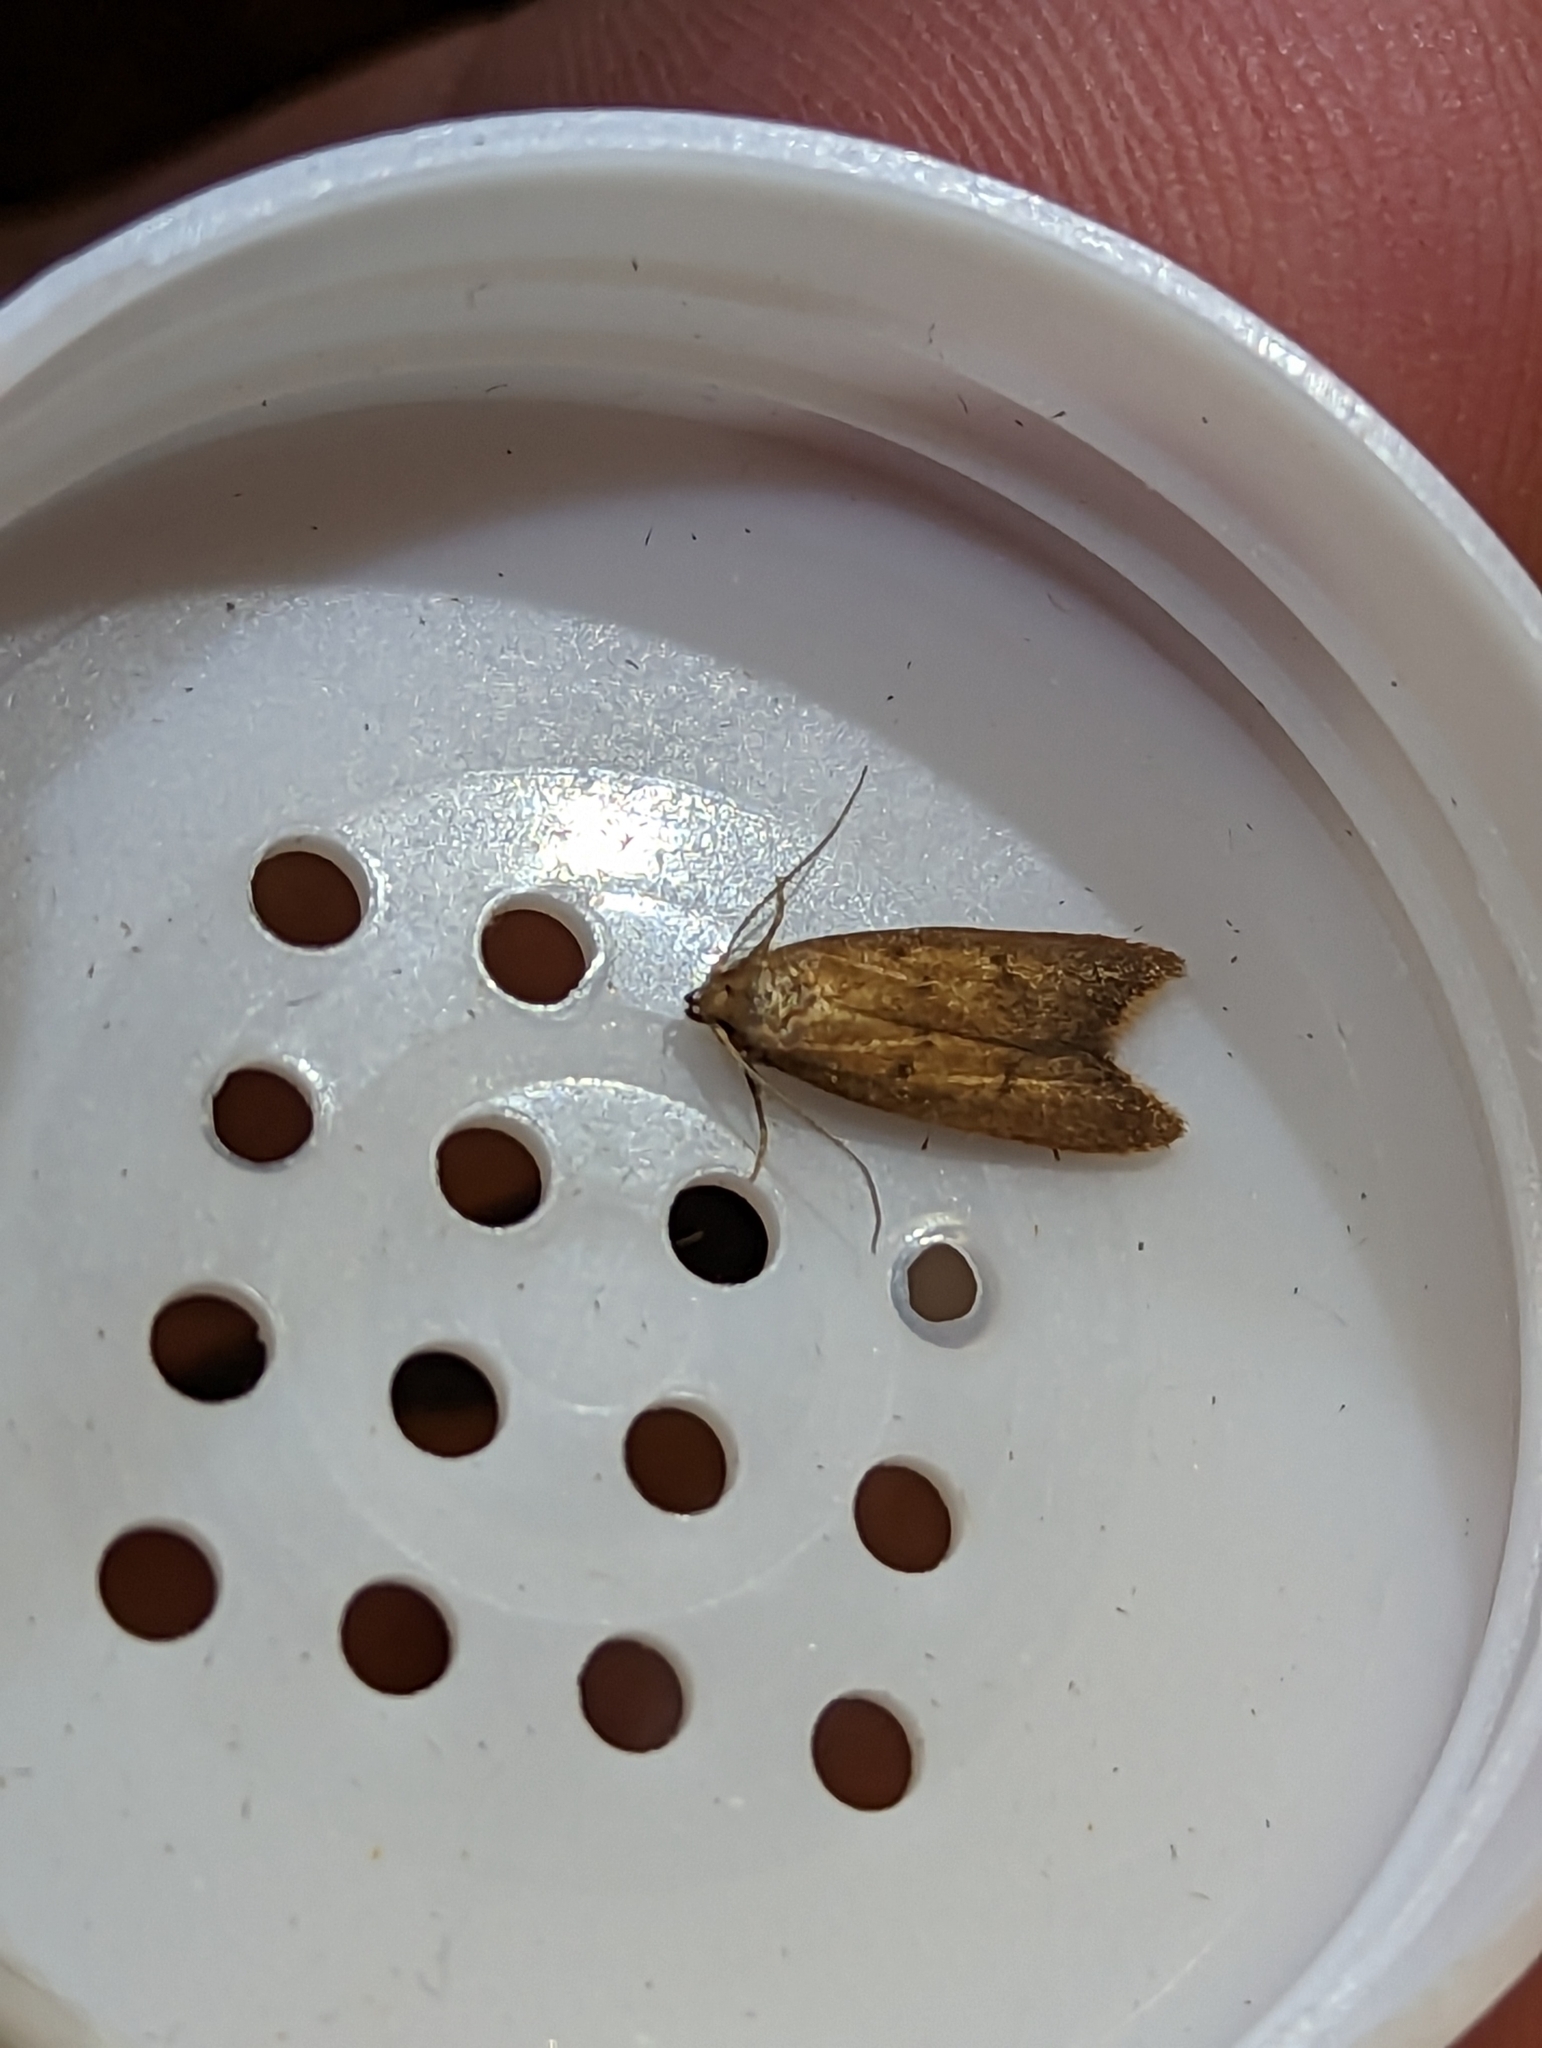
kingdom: Animalia
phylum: Arthropoda
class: Insecta
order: Lepidoptera
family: Oecophoridae
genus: Tachystola
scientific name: Tachystola acroxantha
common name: Ruddy streak
